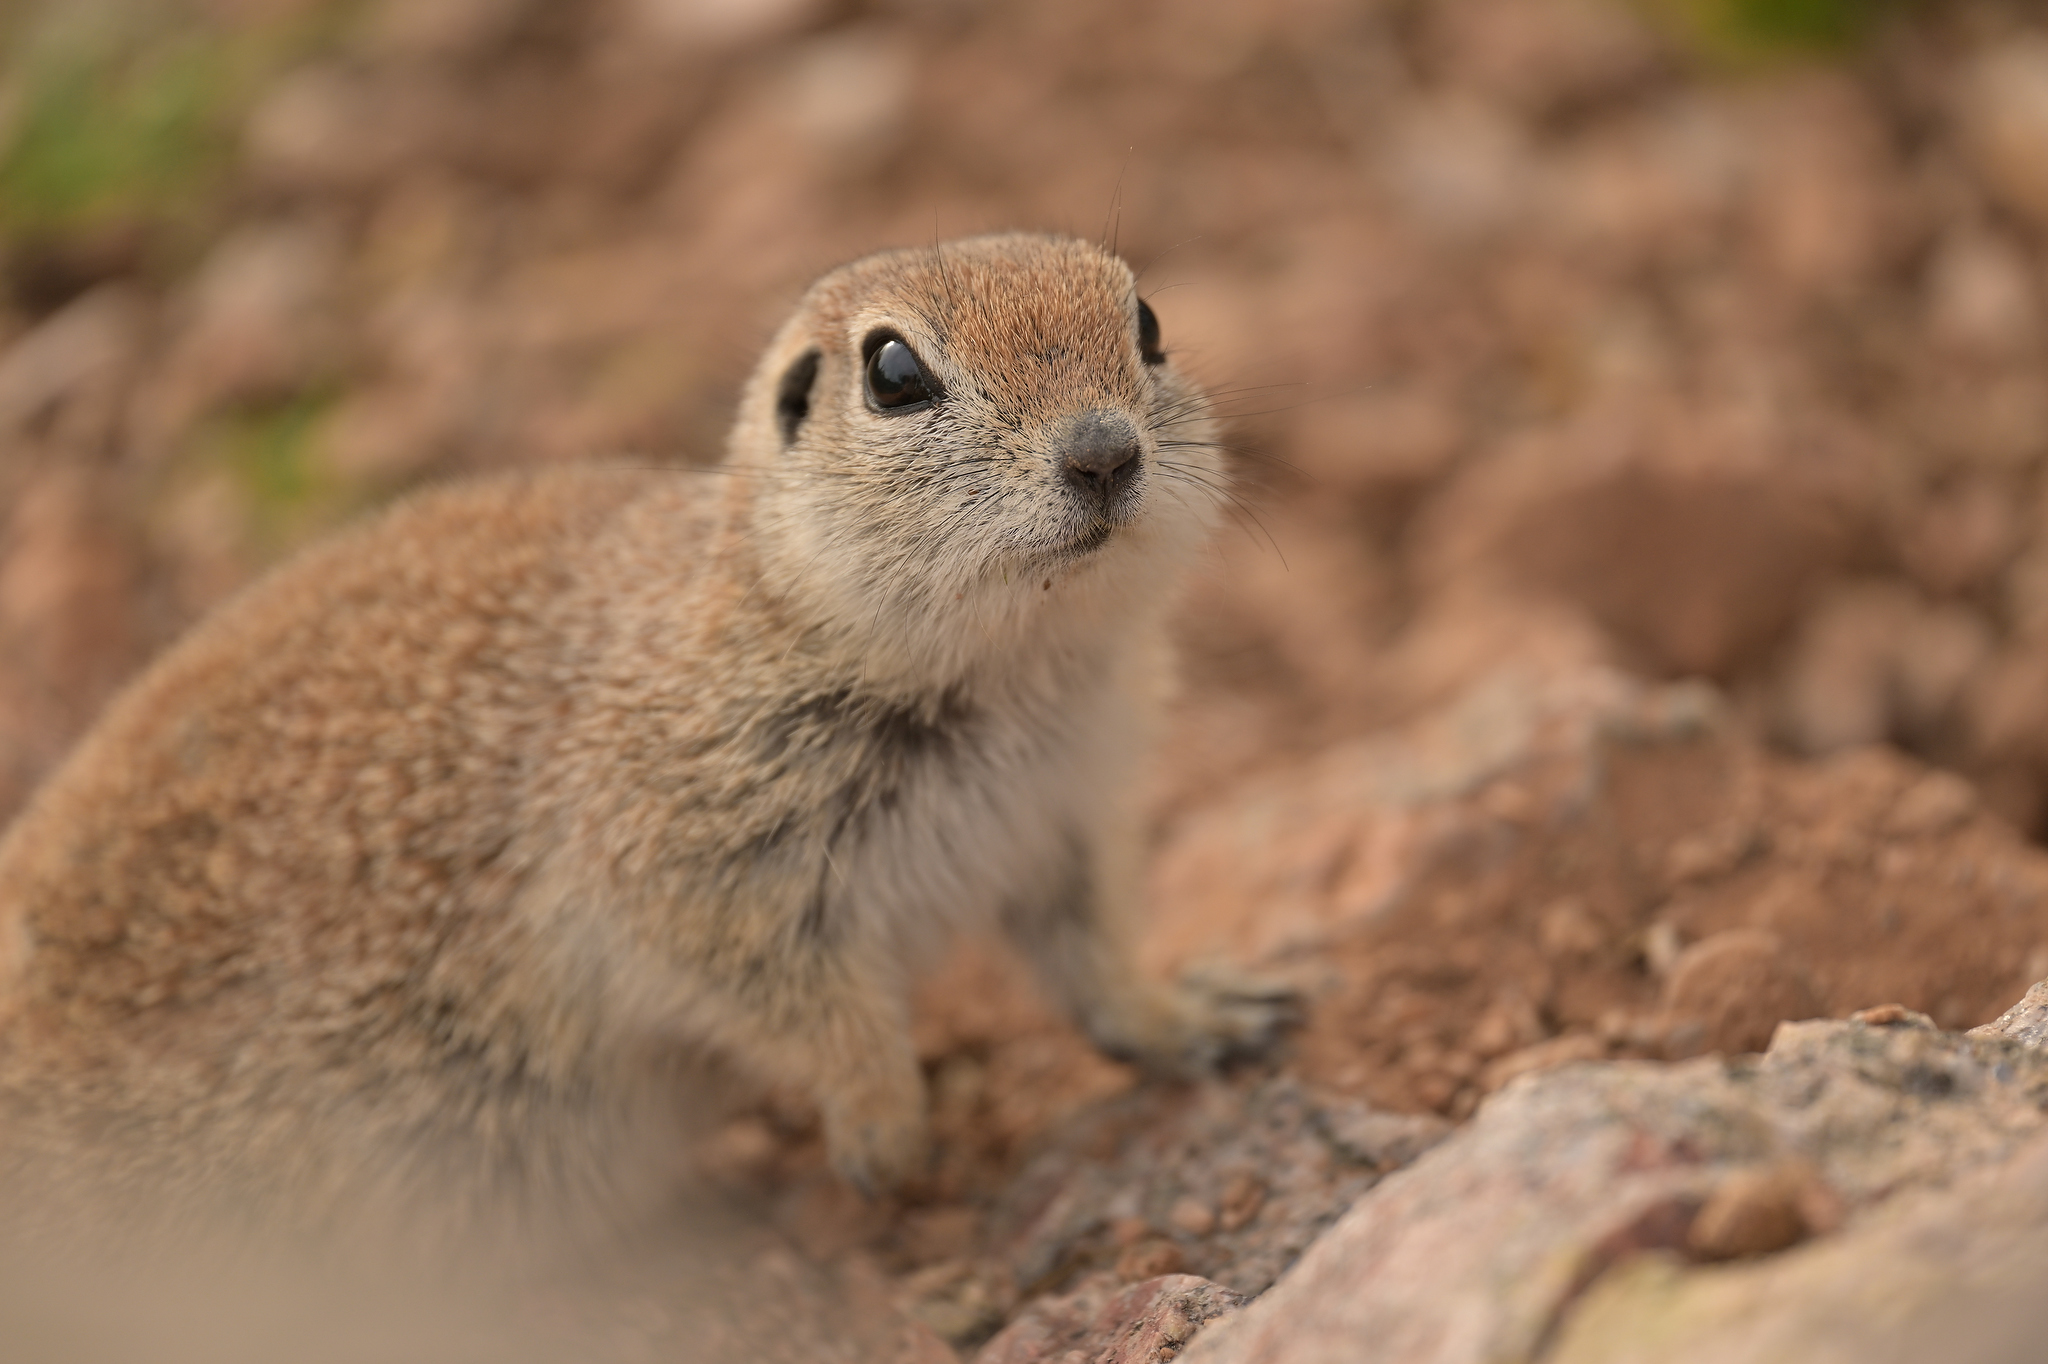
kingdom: Animalia
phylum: Chordata
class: Mammalia
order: Rodentia
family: Sciuridae
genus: Xerospermophilus
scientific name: Xerospermophilus tereticaudus
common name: Round-tailed ground squirrel
